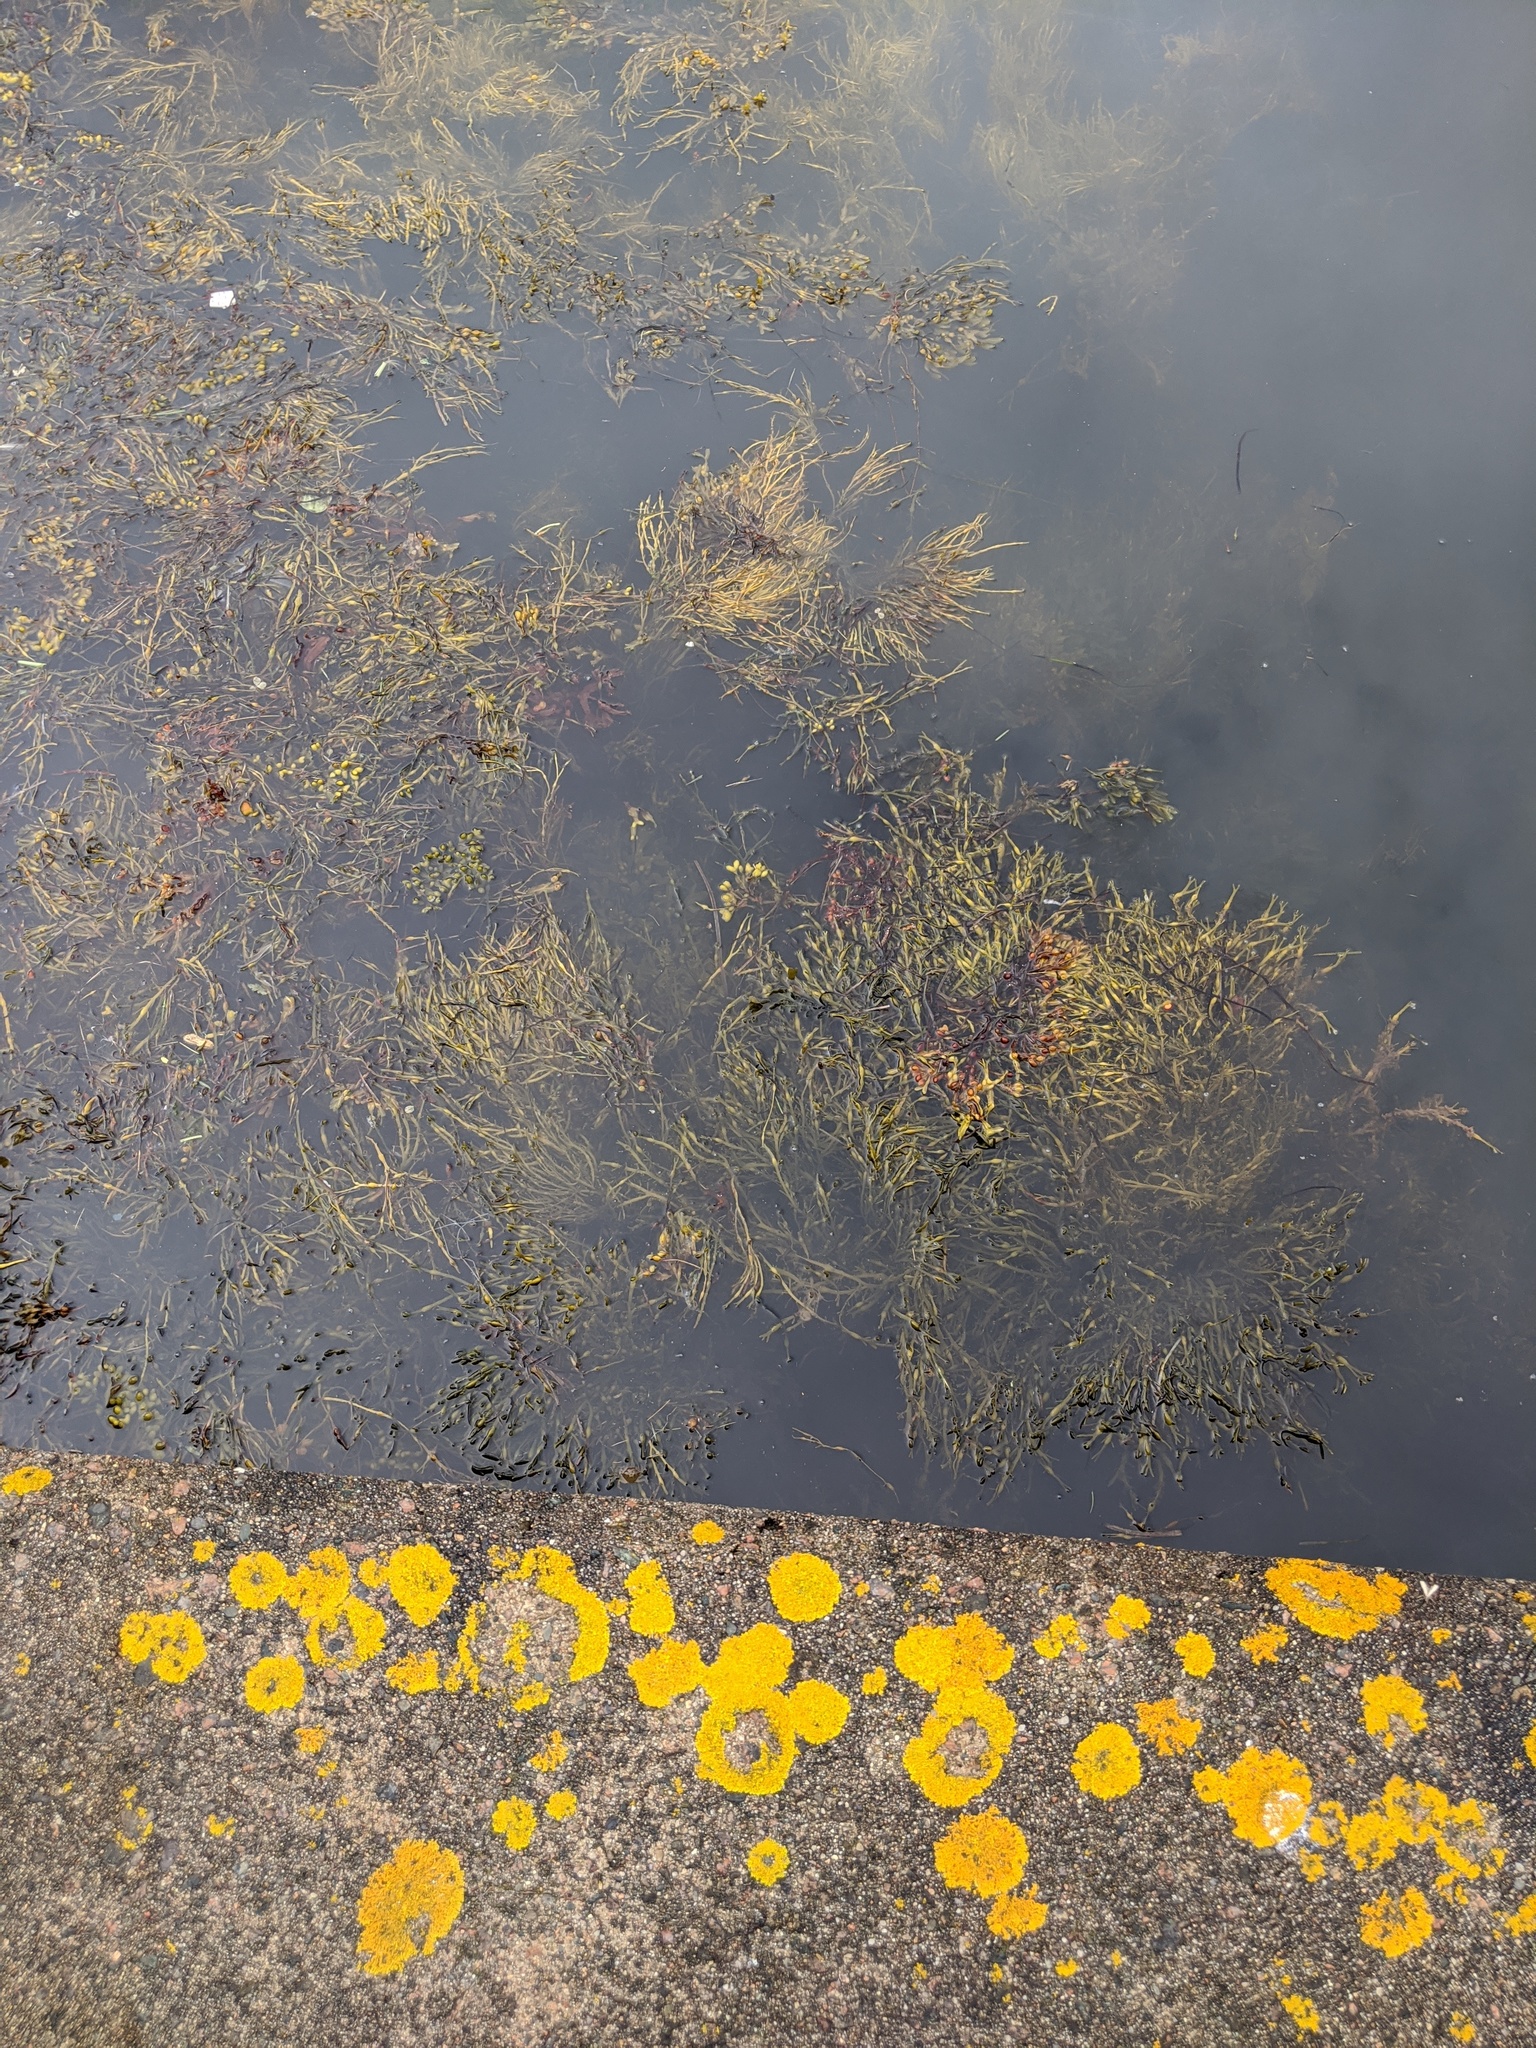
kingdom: Chromista
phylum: Ochrophyta
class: Phaeophyceae
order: Fucales
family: Fucaceae
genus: Ascophyllum
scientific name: Ascophyllum nodosum
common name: Knotted wrack
